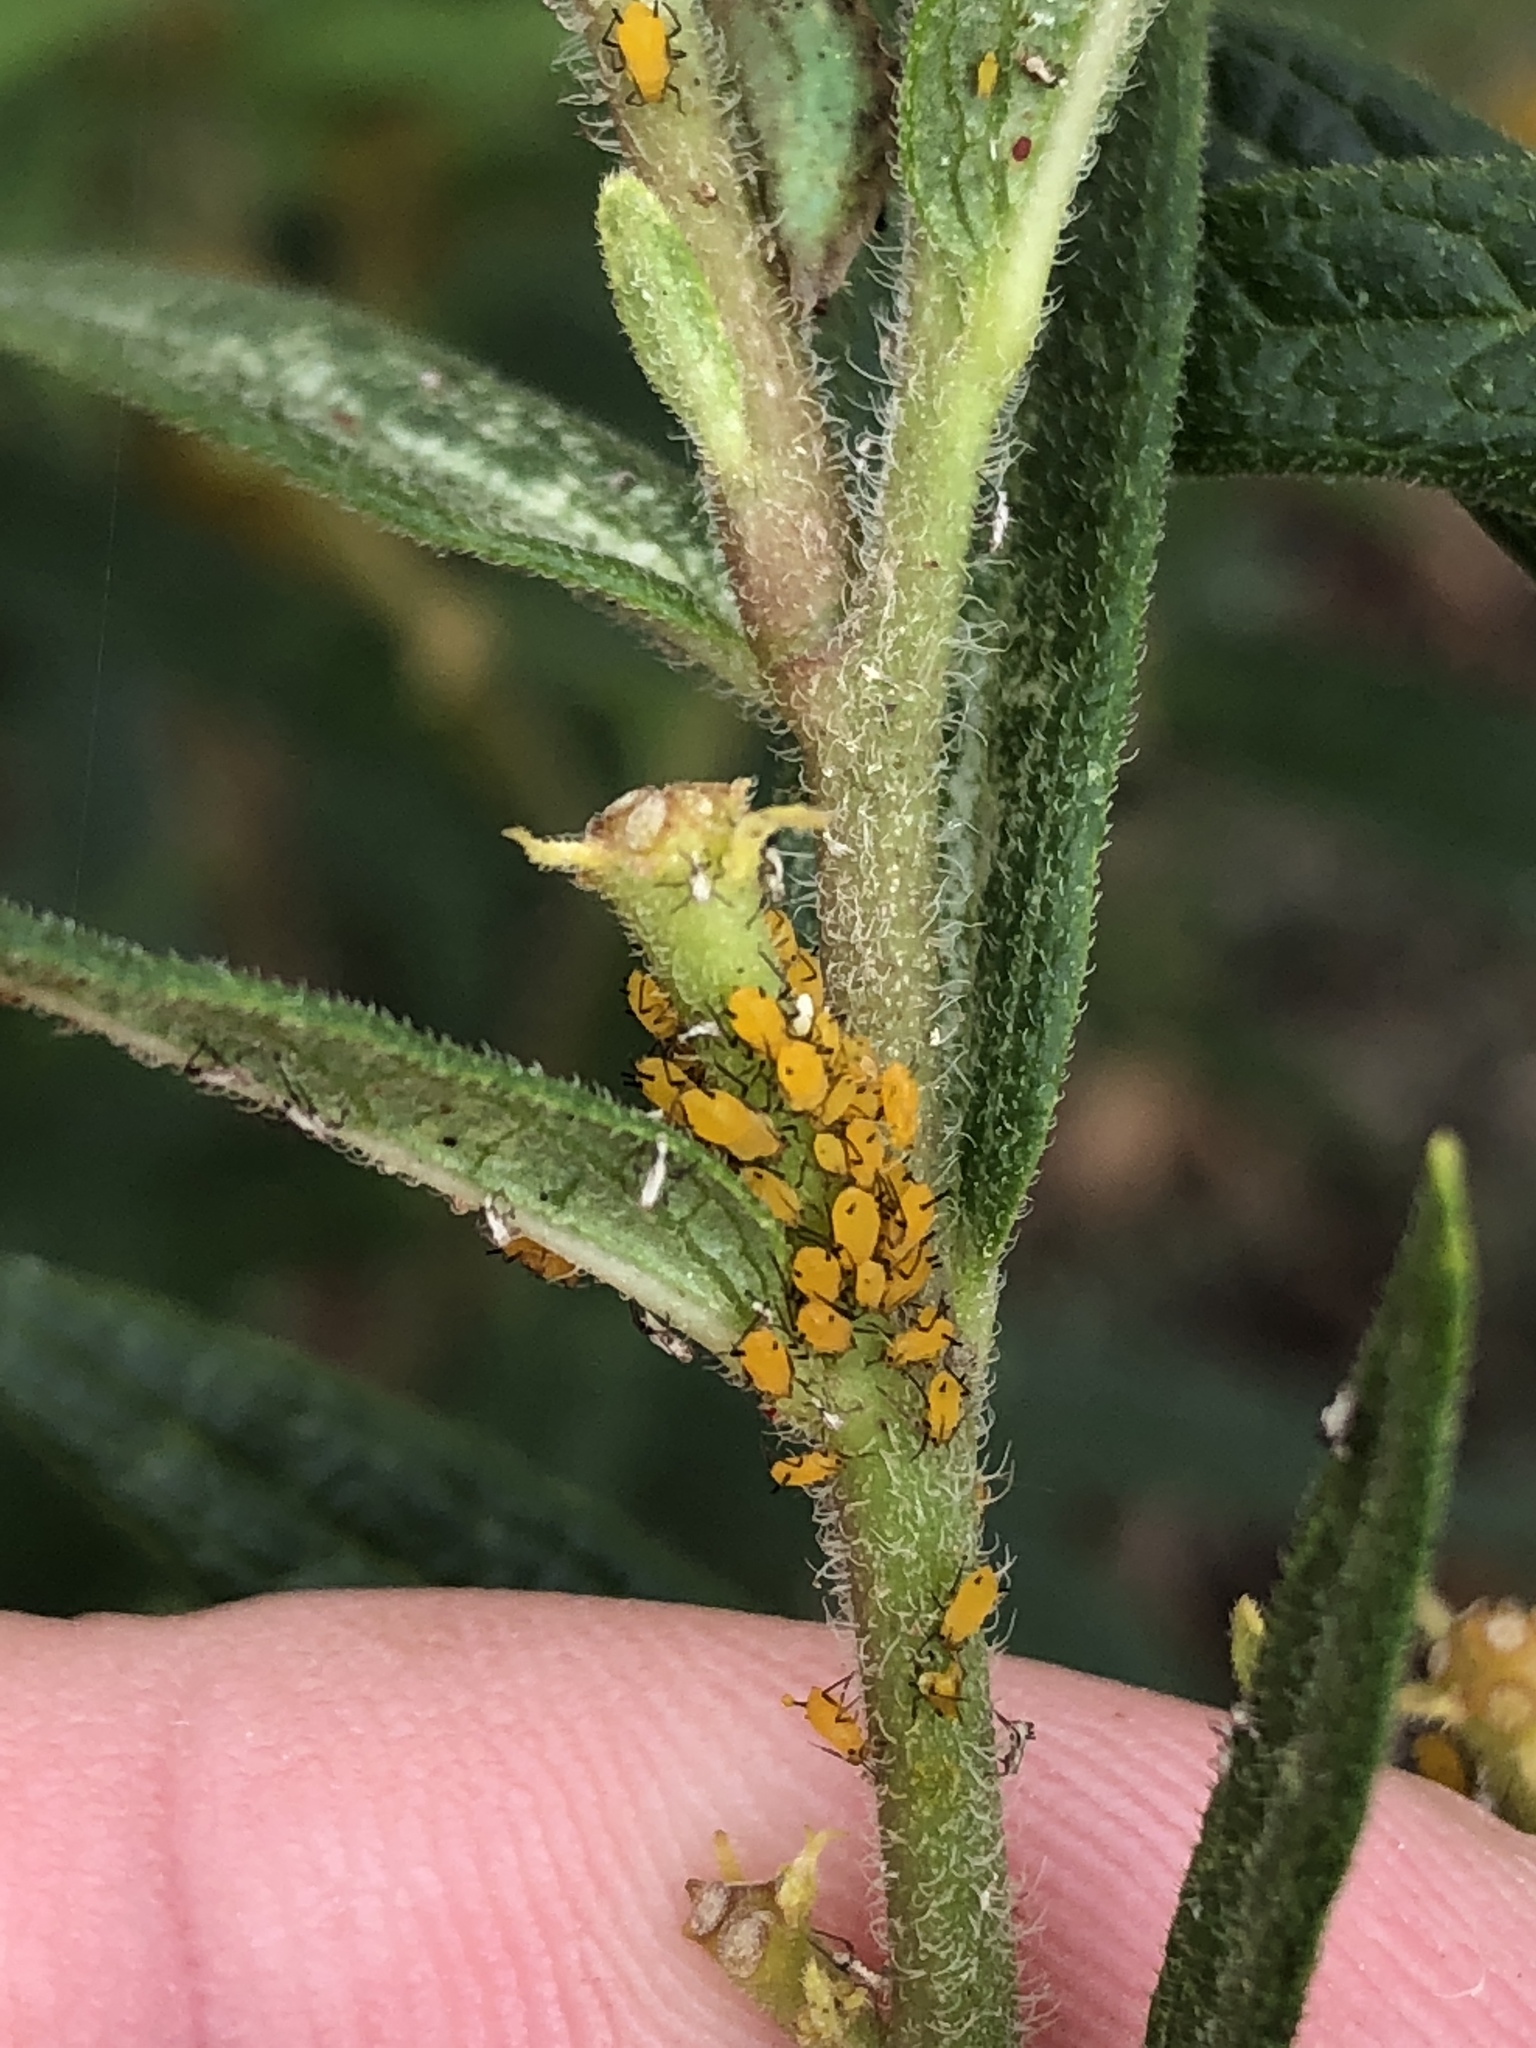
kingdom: Animalia
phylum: Arthropoda
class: Insecta
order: Hemiptera
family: Aphididae
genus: Aphis
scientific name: Aphis nerii
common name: Oleander aphid
